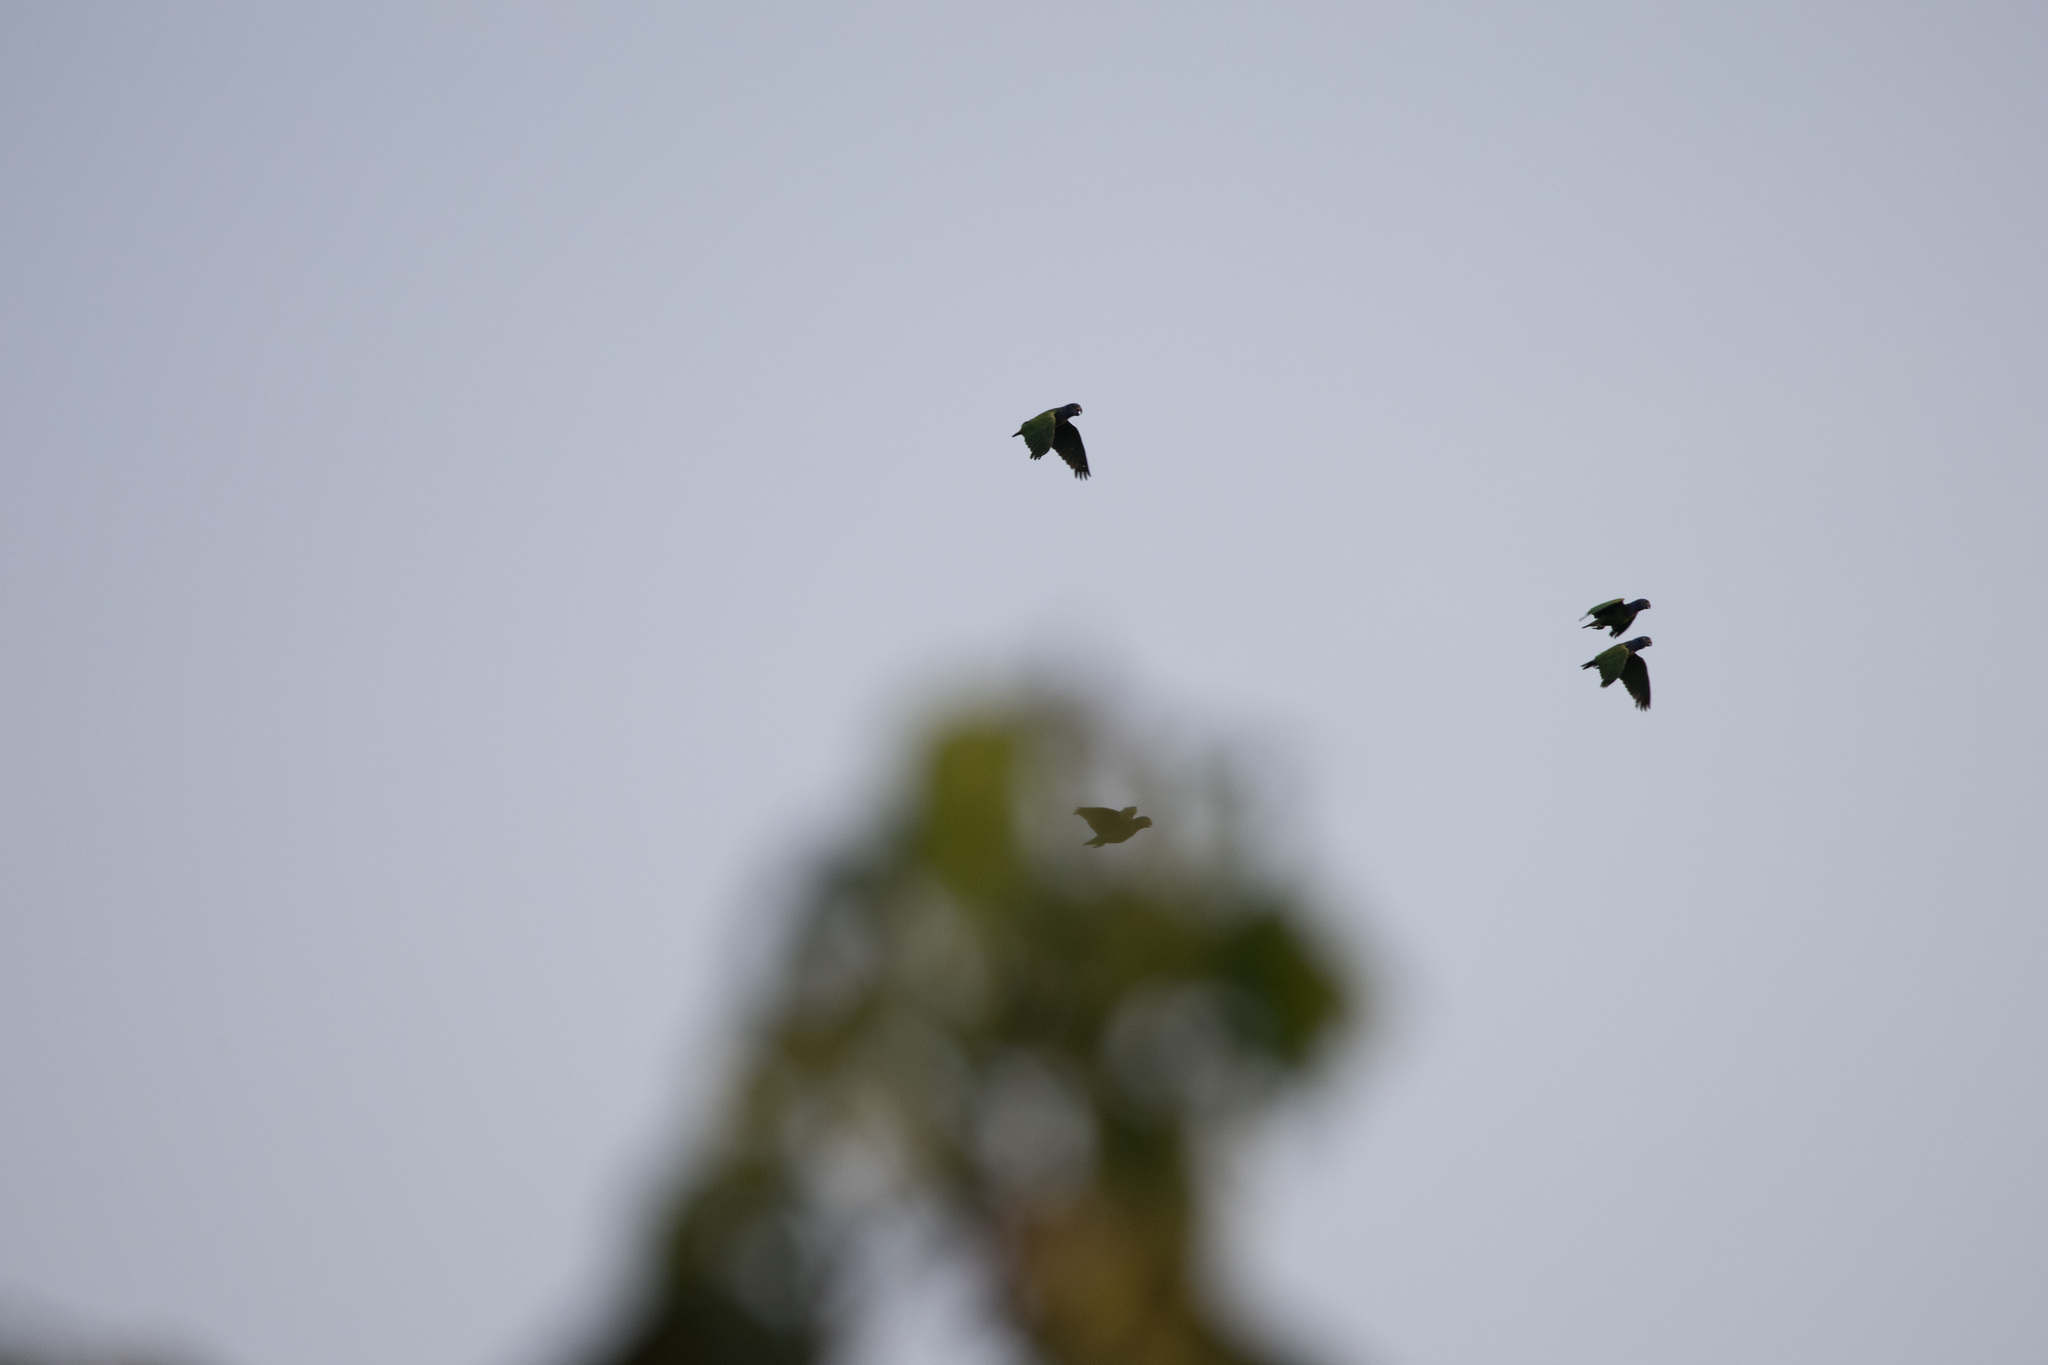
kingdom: Animalia
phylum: Chordata
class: Aves
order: Psittaciformes
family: Psittacidae
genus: Pionus
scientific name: Pionus menstruus
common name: Blue-headed parrot
